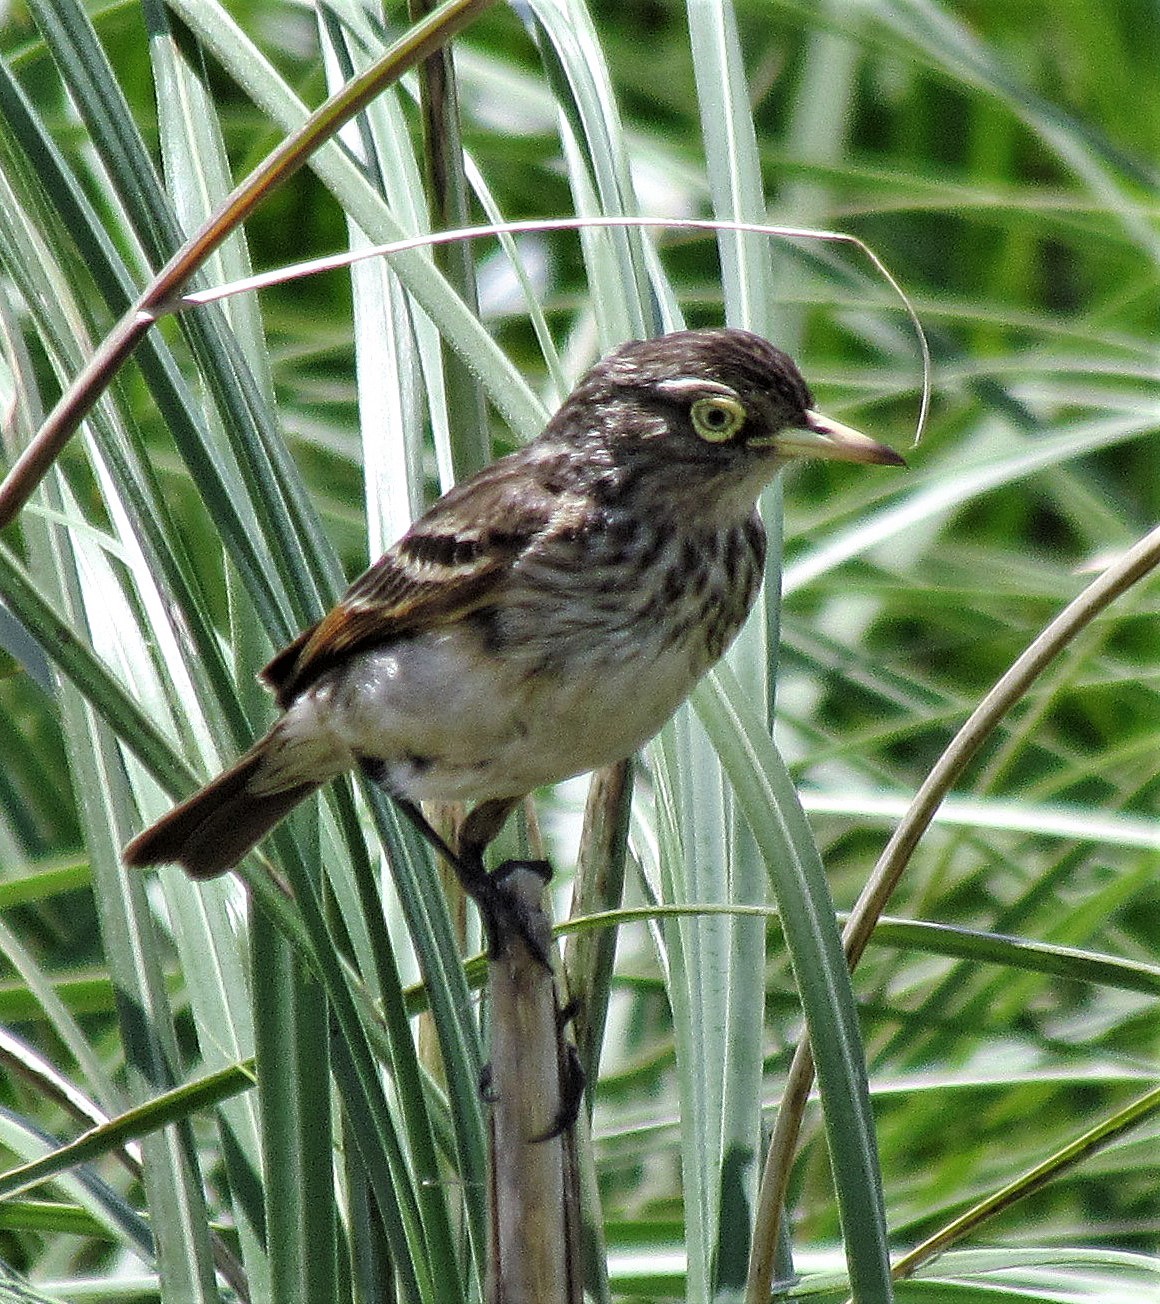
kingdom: Animalia
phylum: Chordata
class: Aves
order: Passeriformes
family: Tyrannidae
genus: Hymenops
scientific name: Hymenops perspicillatus
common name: Spectacled tyrant
